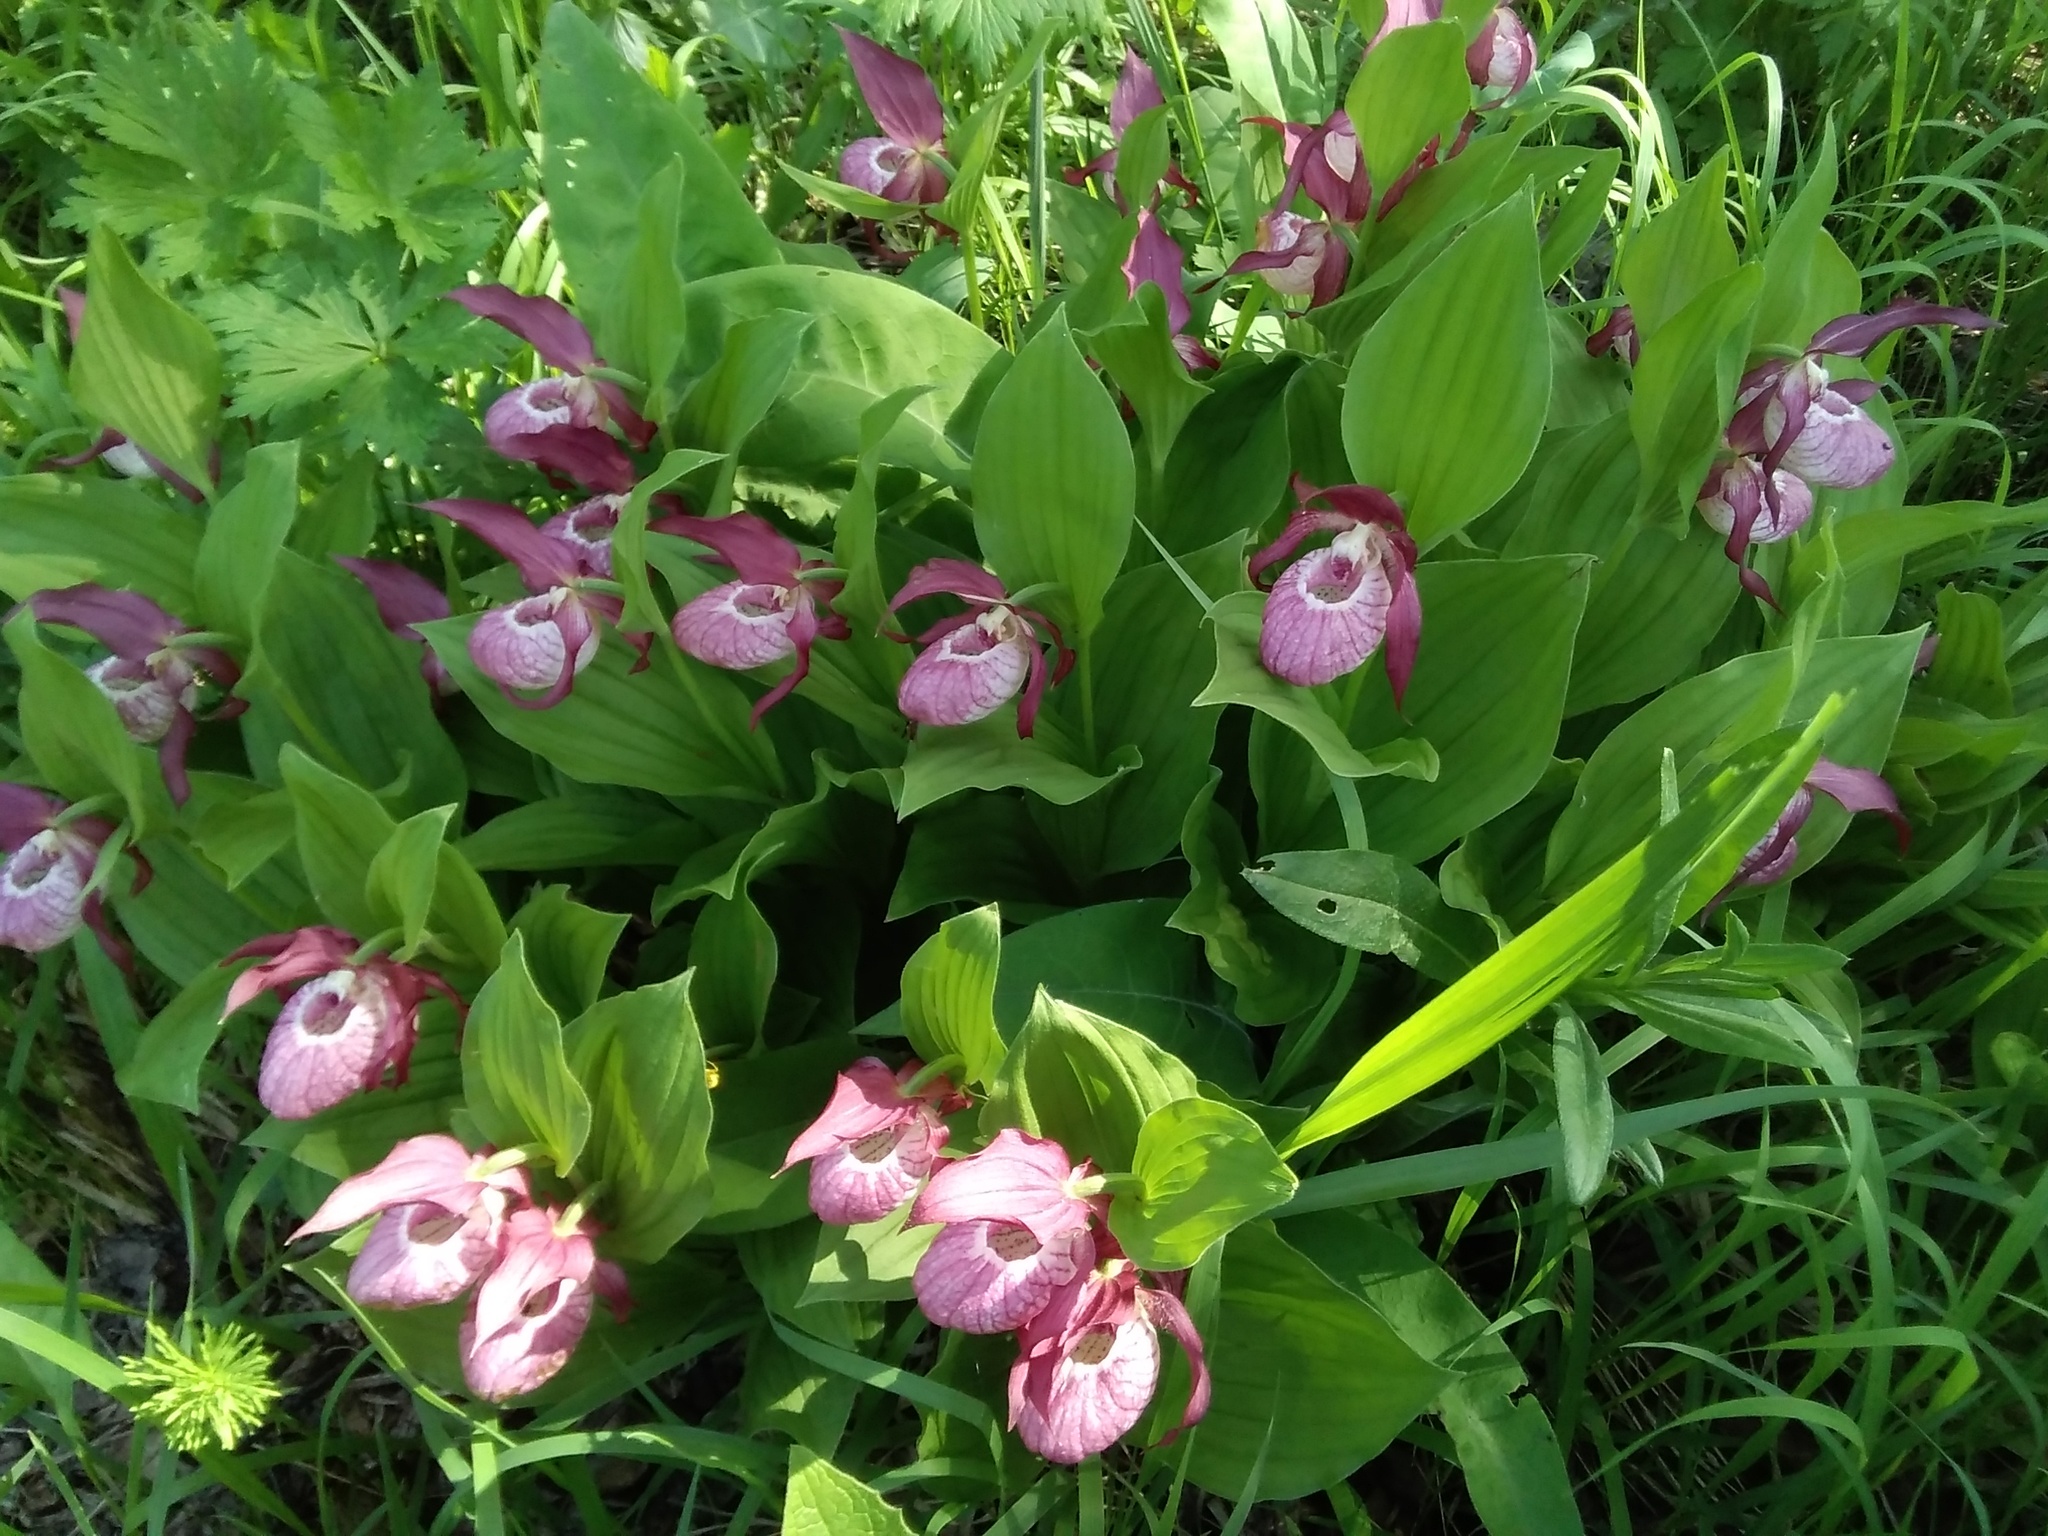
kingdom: Plantae
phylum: Tracheophyta
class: Liliopsida
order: Asparagales
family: Orchidaceae
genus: Cypripedium
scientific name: Cypripedium ventricosum
